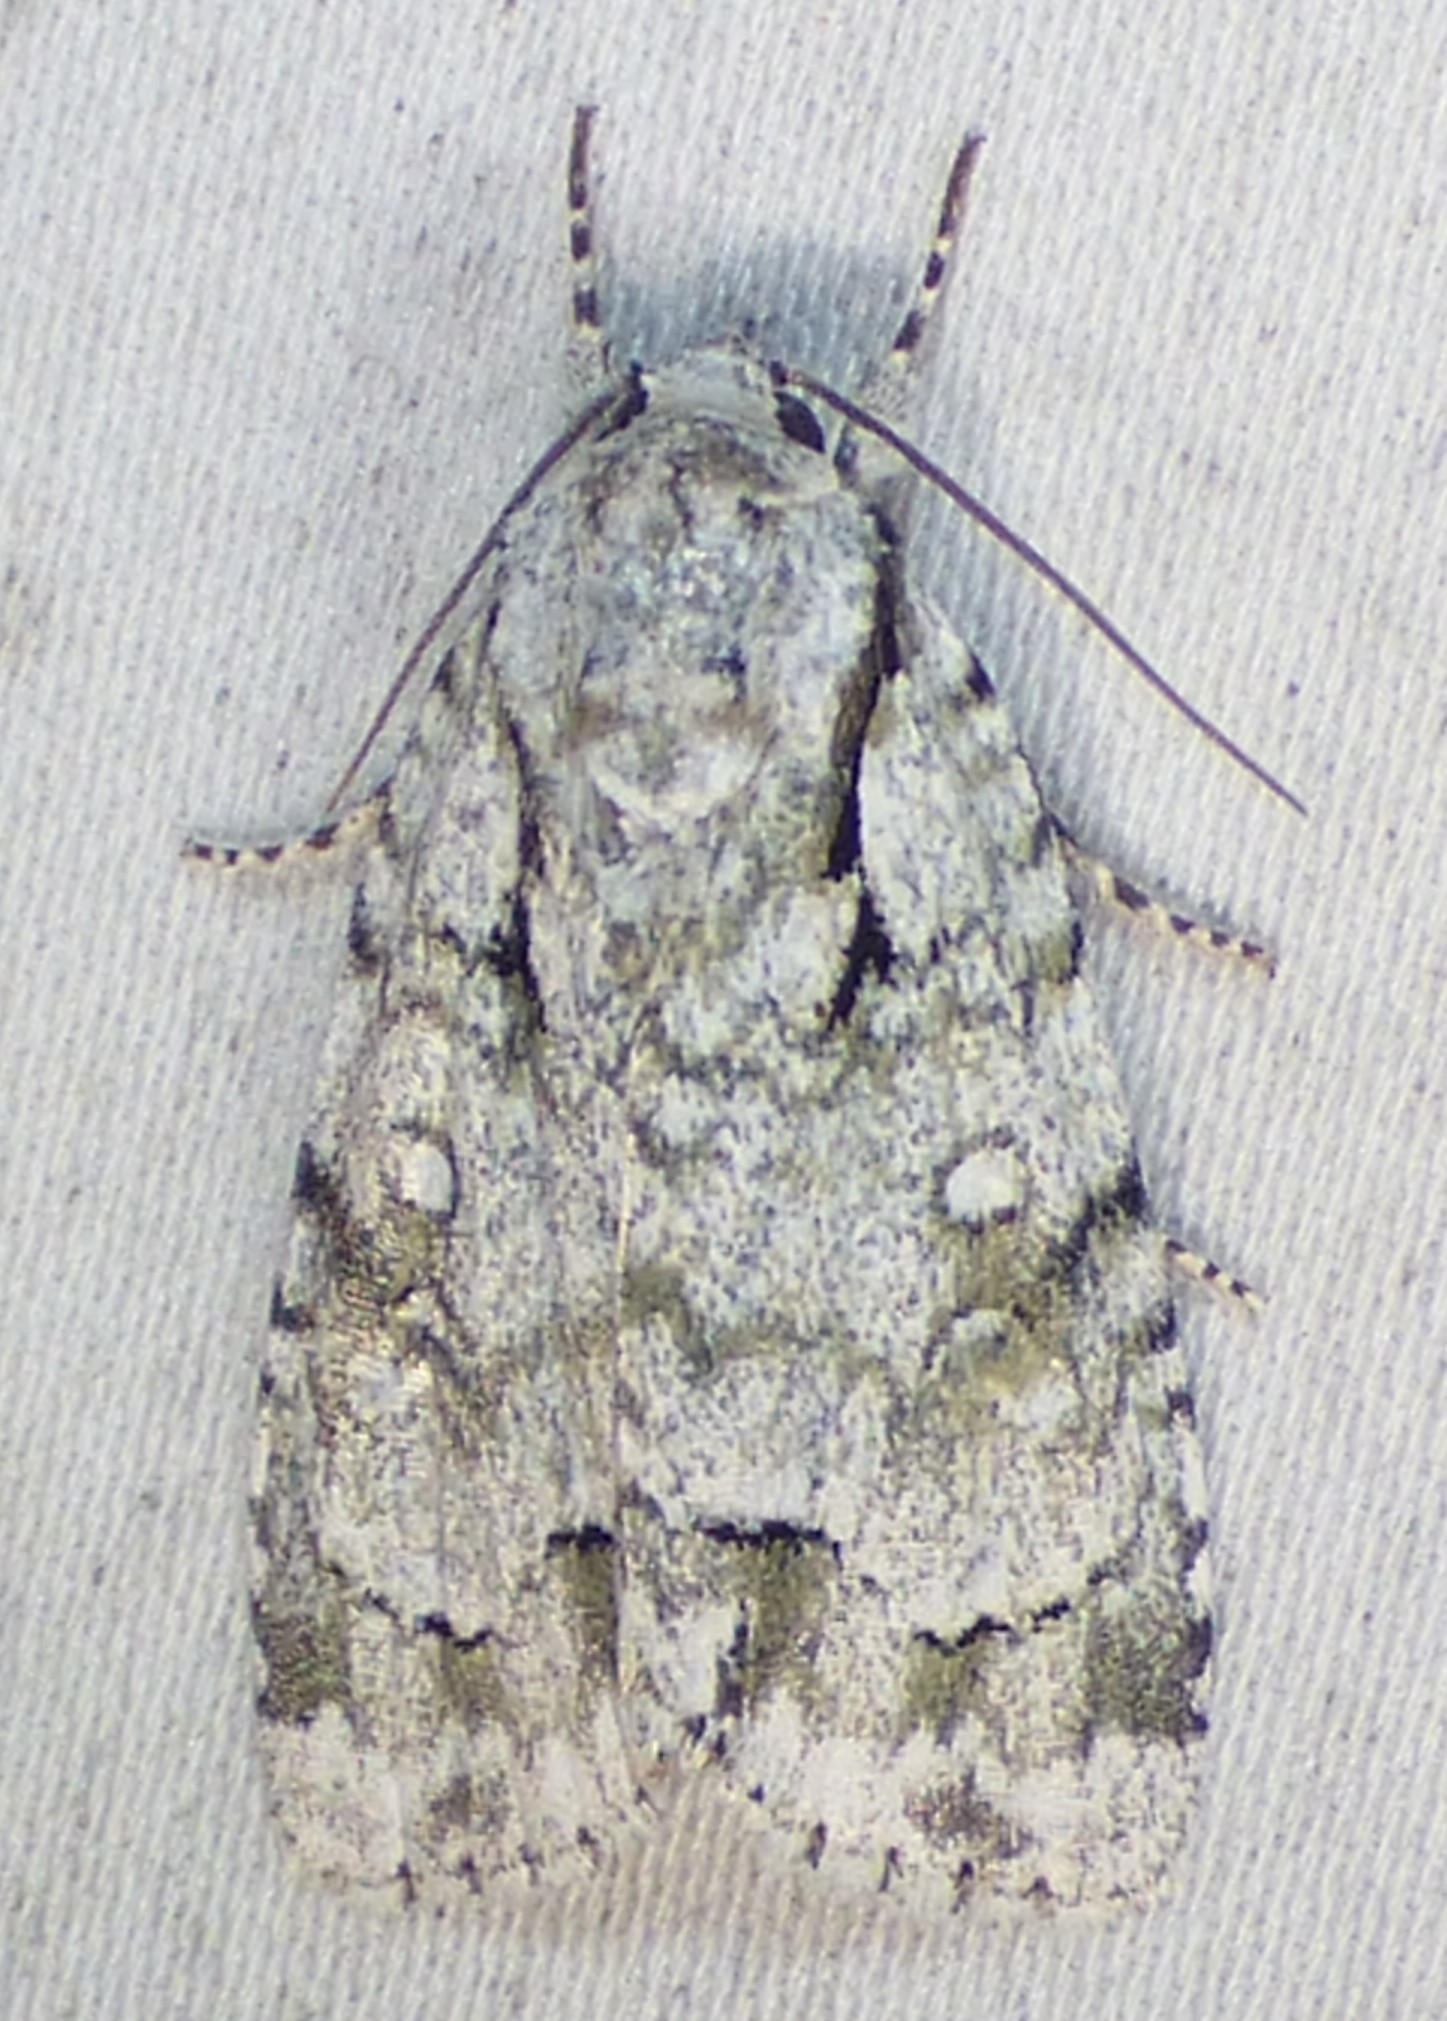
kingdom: Animalia
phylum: Arthropoda
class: Insecta
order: Lepidoptera
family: Noctuidae
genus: Acronicta
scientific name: Acronicta vinnula
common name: Delightful dagger
